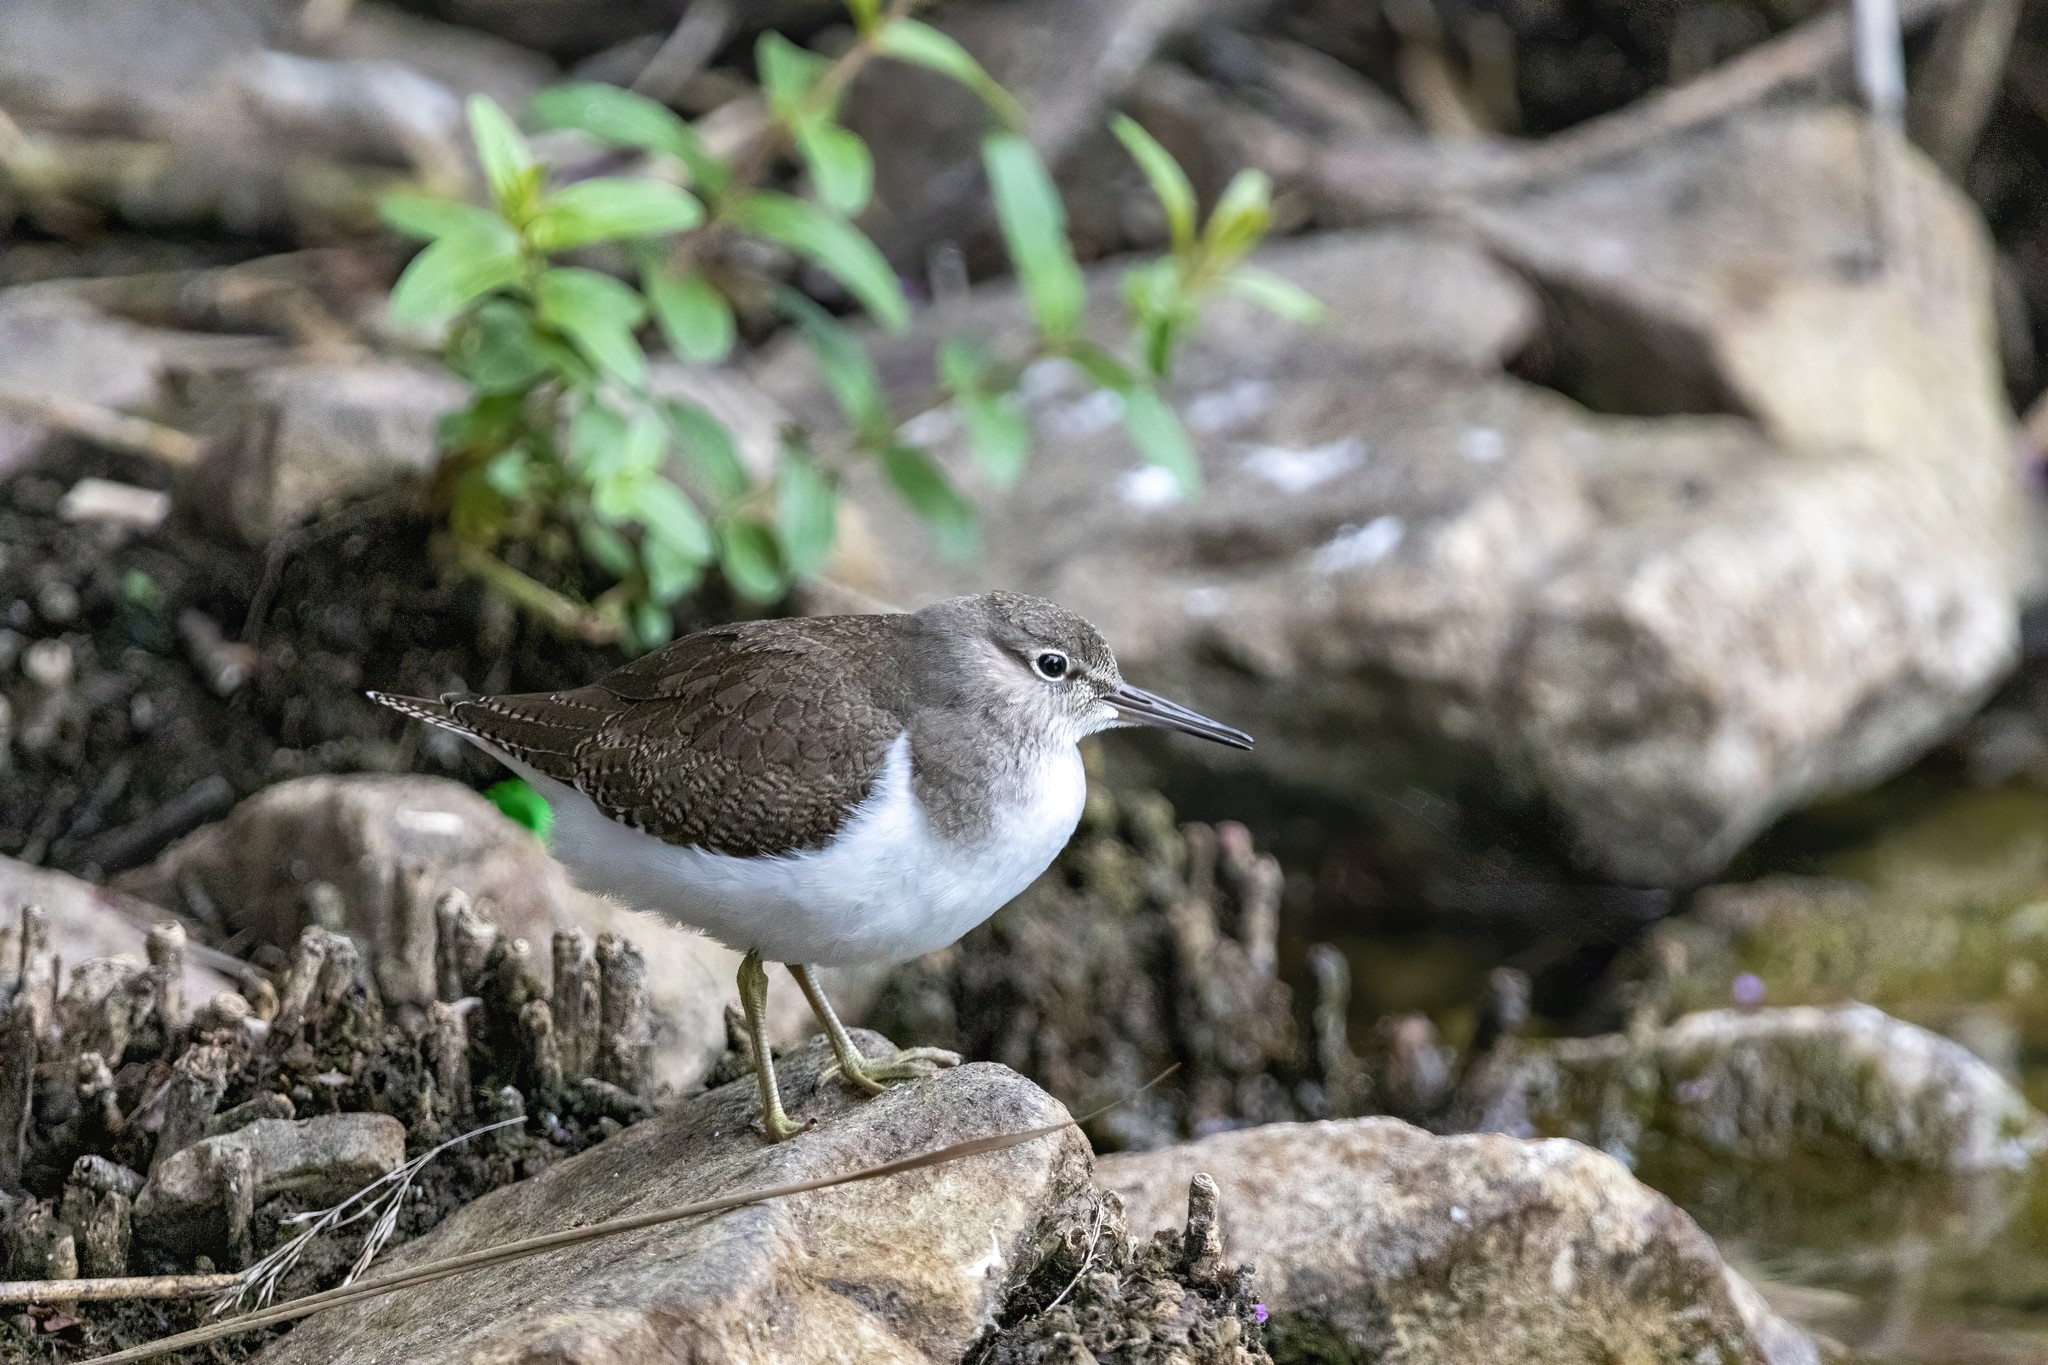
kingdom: Animalia
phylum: Chordata
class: Aves
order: Charadriiformes
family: Scolopacidae
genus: Actitis
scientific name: Actitis hypoleucos
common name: Common sandpiper
